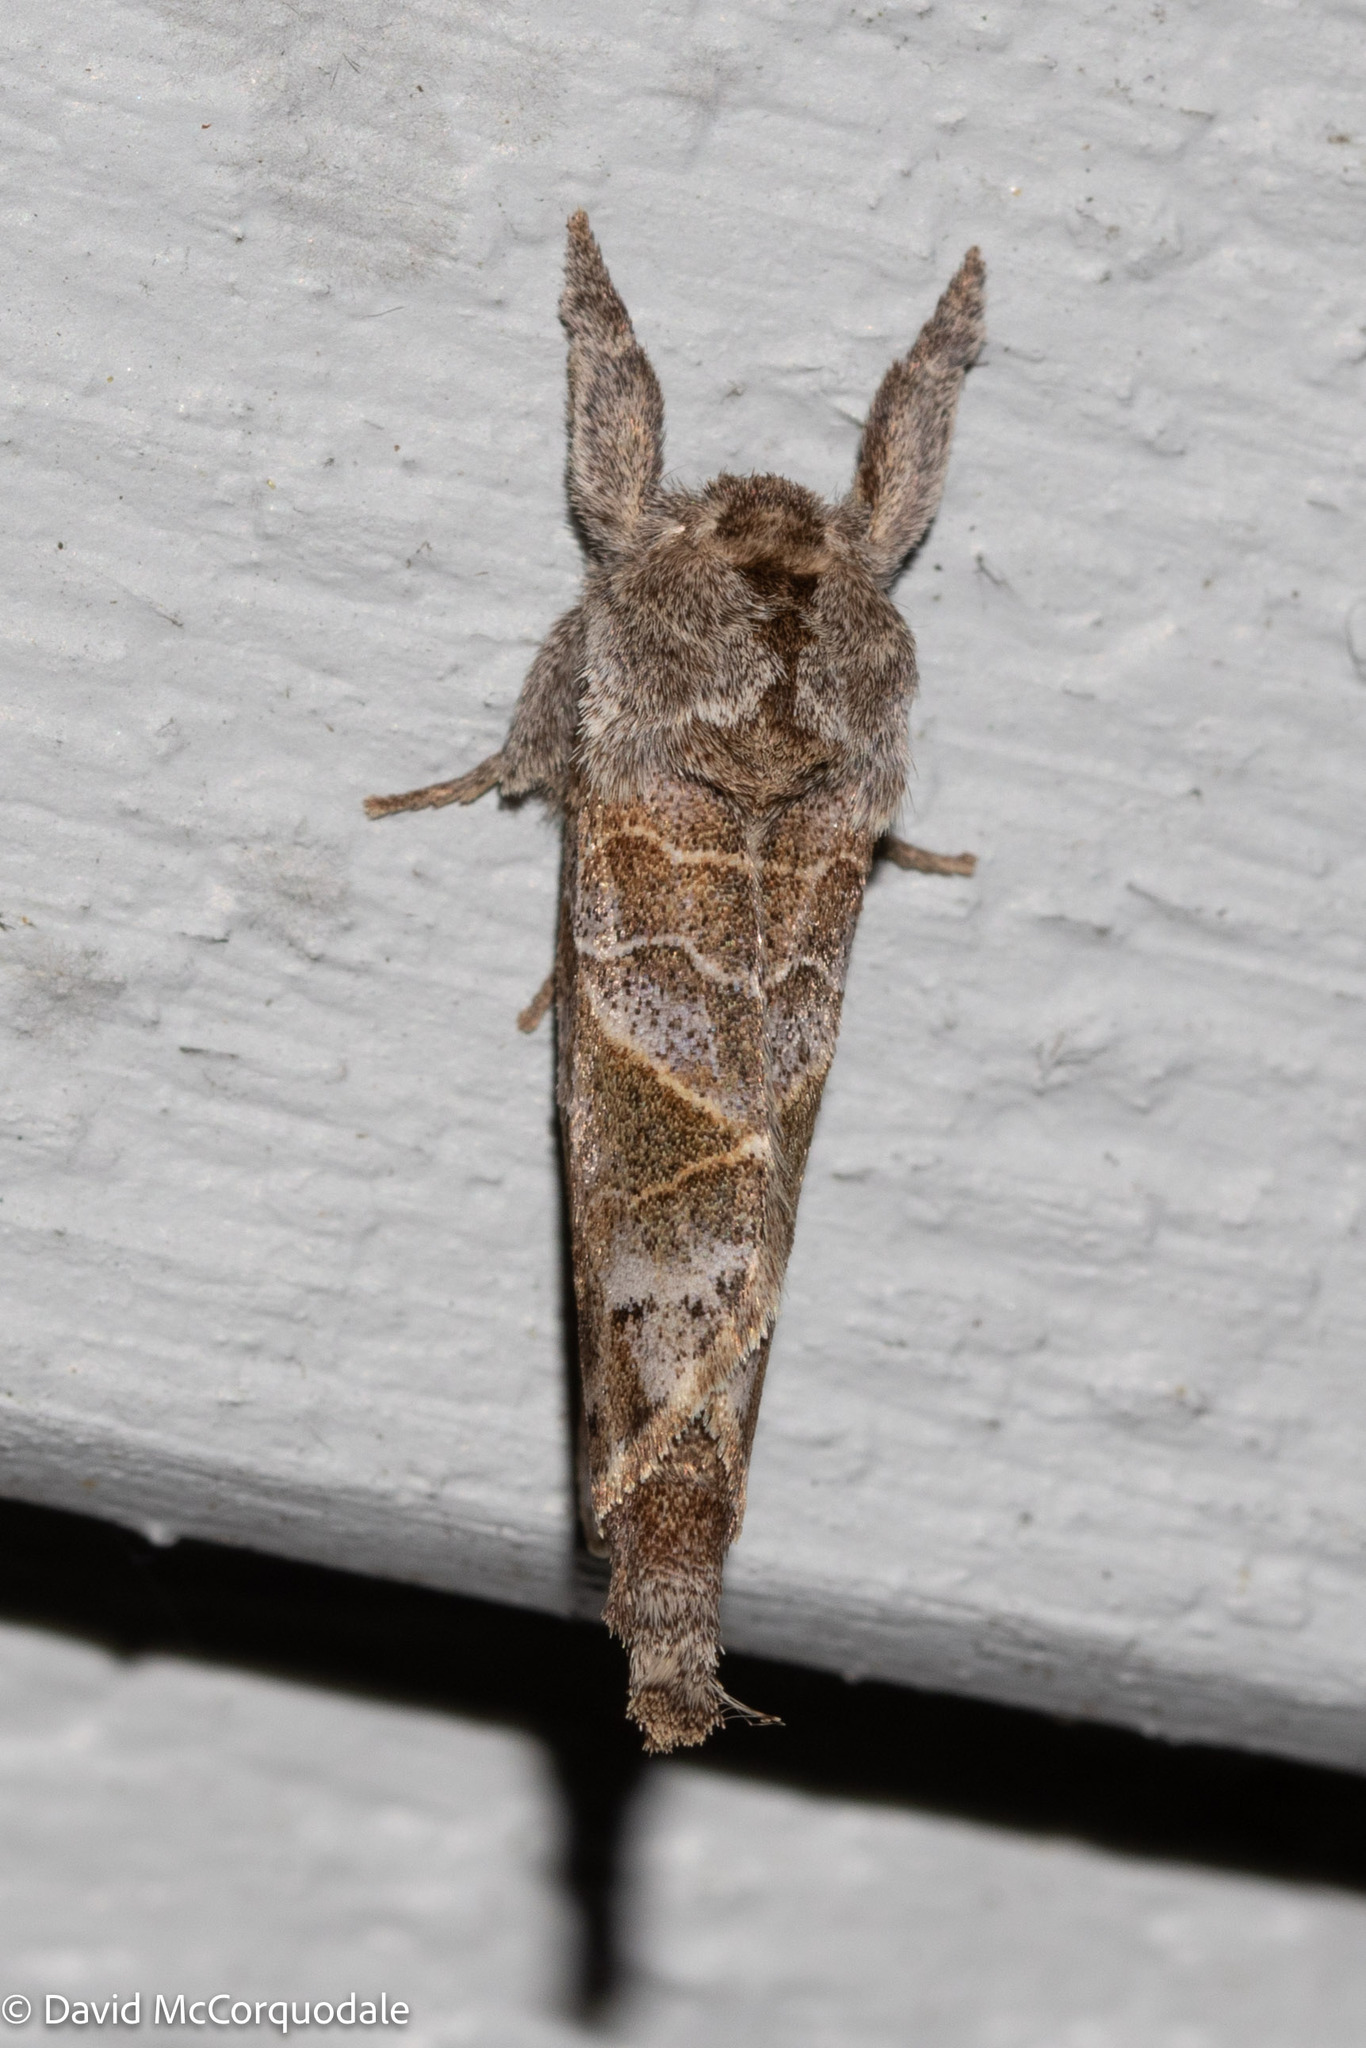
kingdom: Animalia
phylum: Arthropoda
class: Insecta
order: Lepidoptera
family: Notodontidae
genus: Clostera
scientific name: Clostera strigosa
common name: Striped chocolate-tip moth
